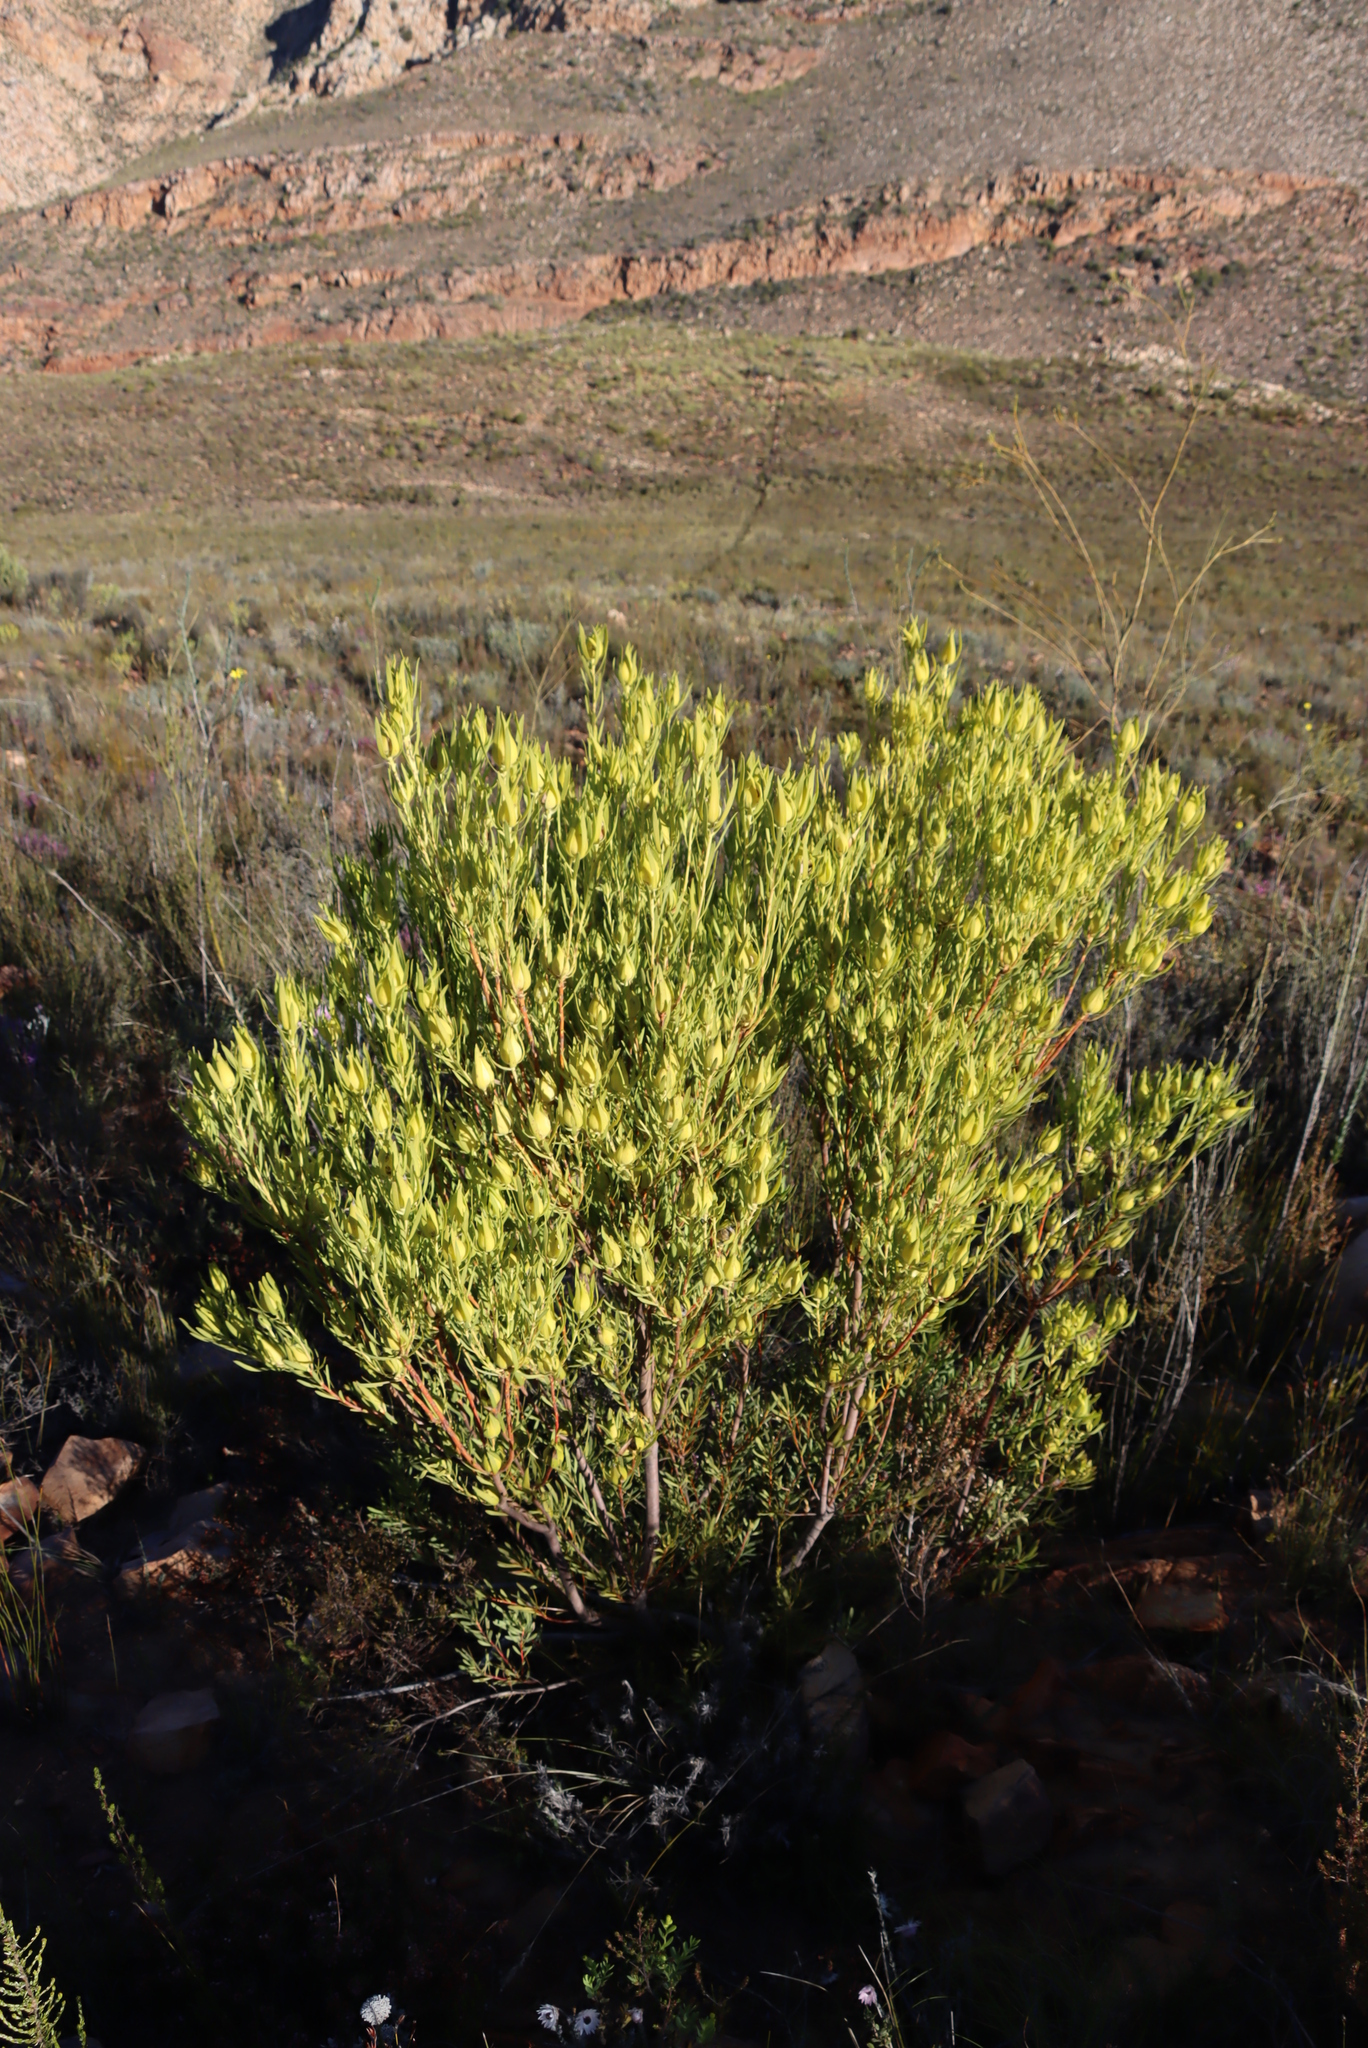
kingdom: Plantae
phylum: Tracheophyta
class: Magnoliopsida
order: Proteales
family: Proteaceae
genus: Leucadendron
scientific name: Leucadendron salignum
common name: Common sunshine conebush
